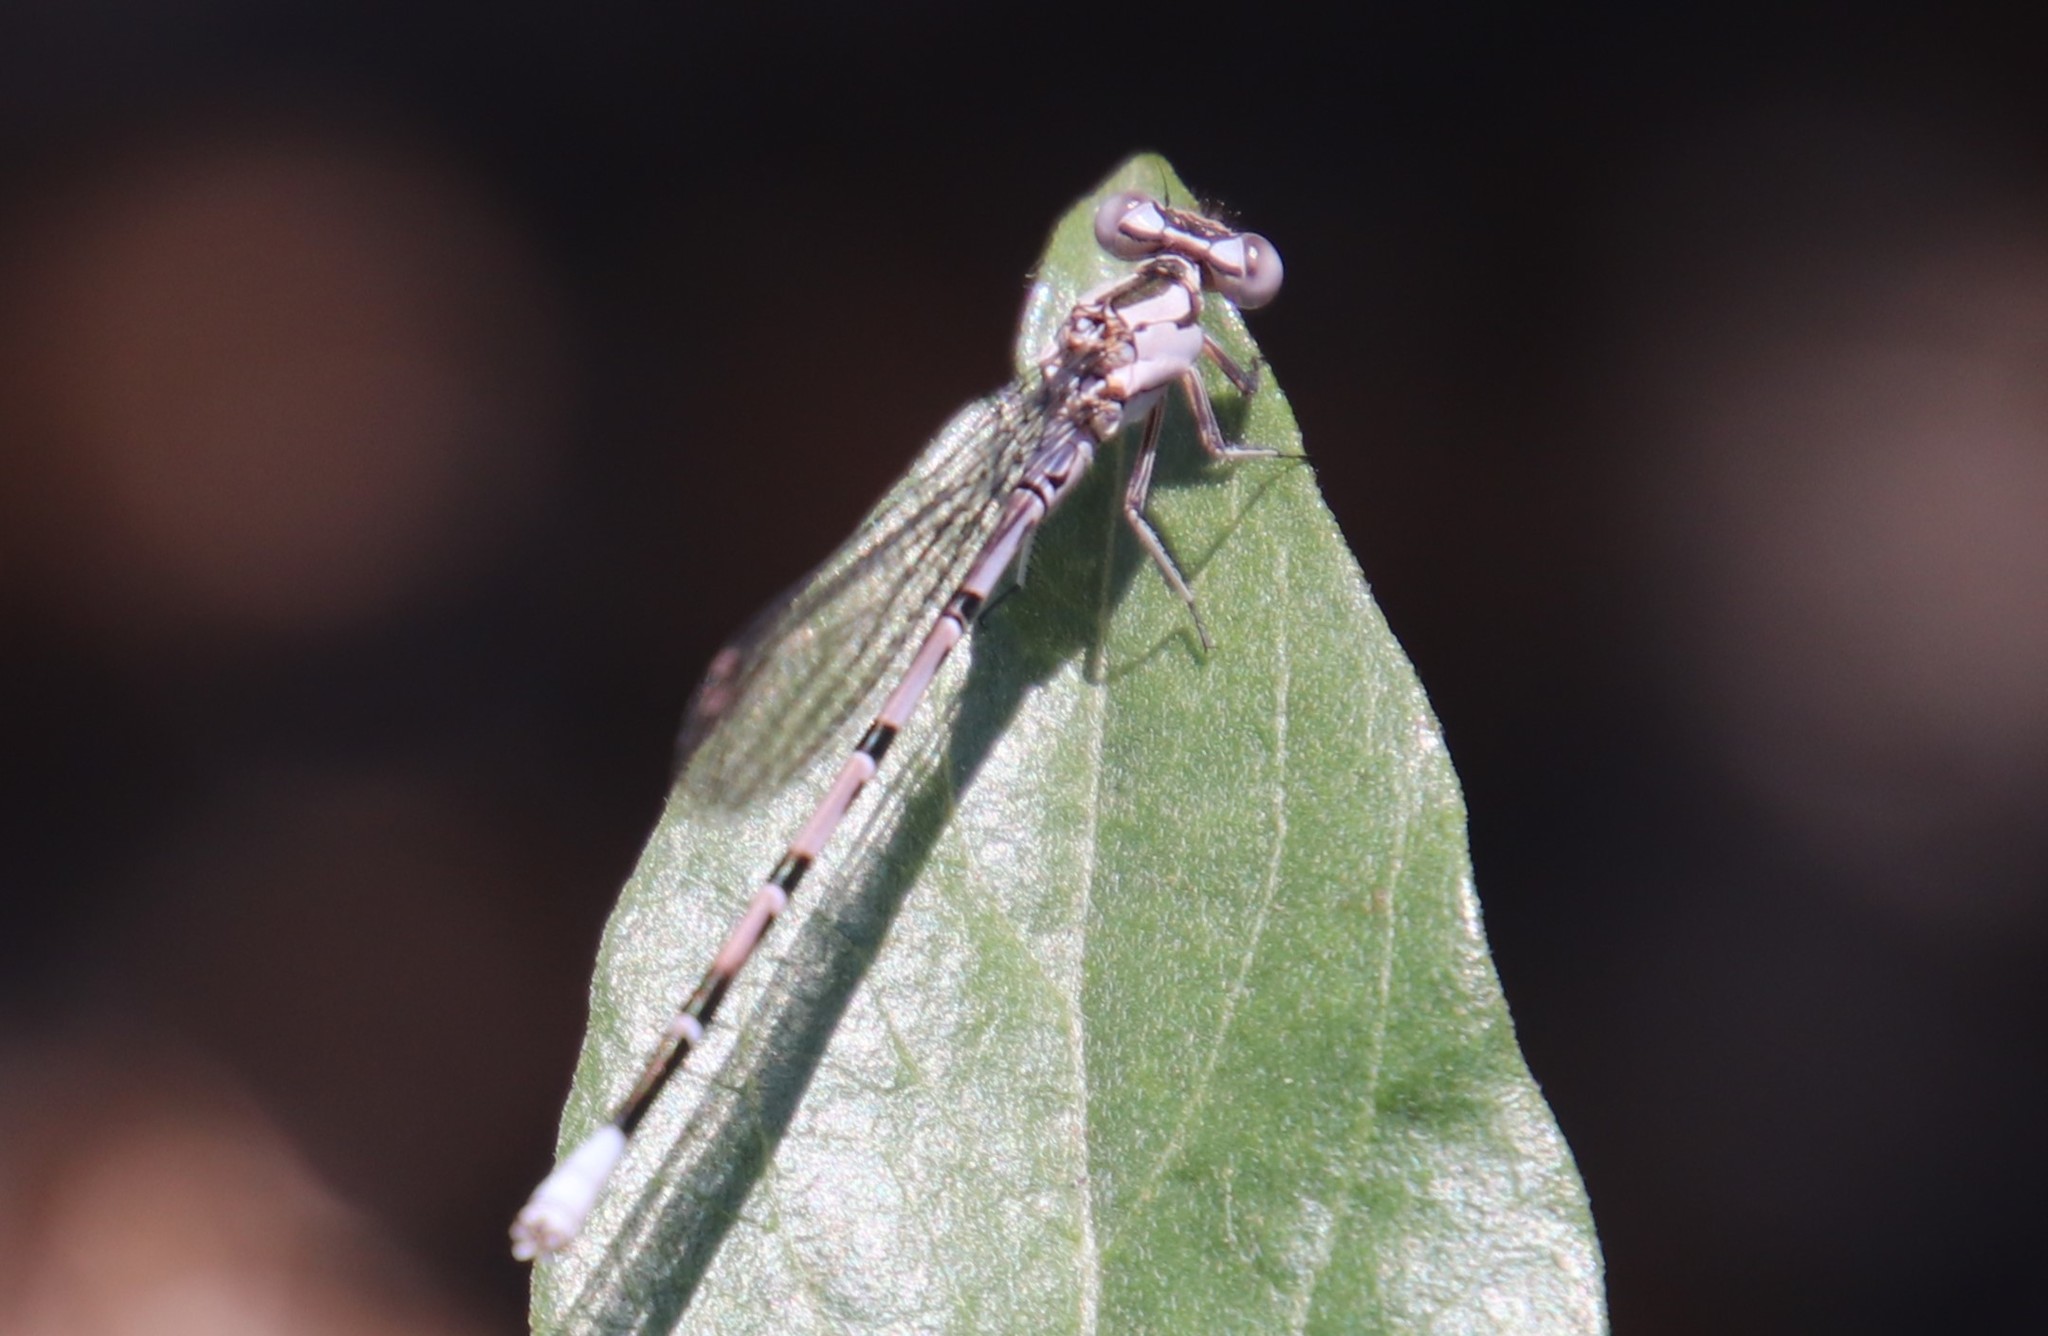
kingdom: Animalia
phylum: Arthropoda
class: Insecta
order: Odonata
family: Coenagrionidae
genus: Argia
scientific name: Argia vivida
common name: Vivid dancer
